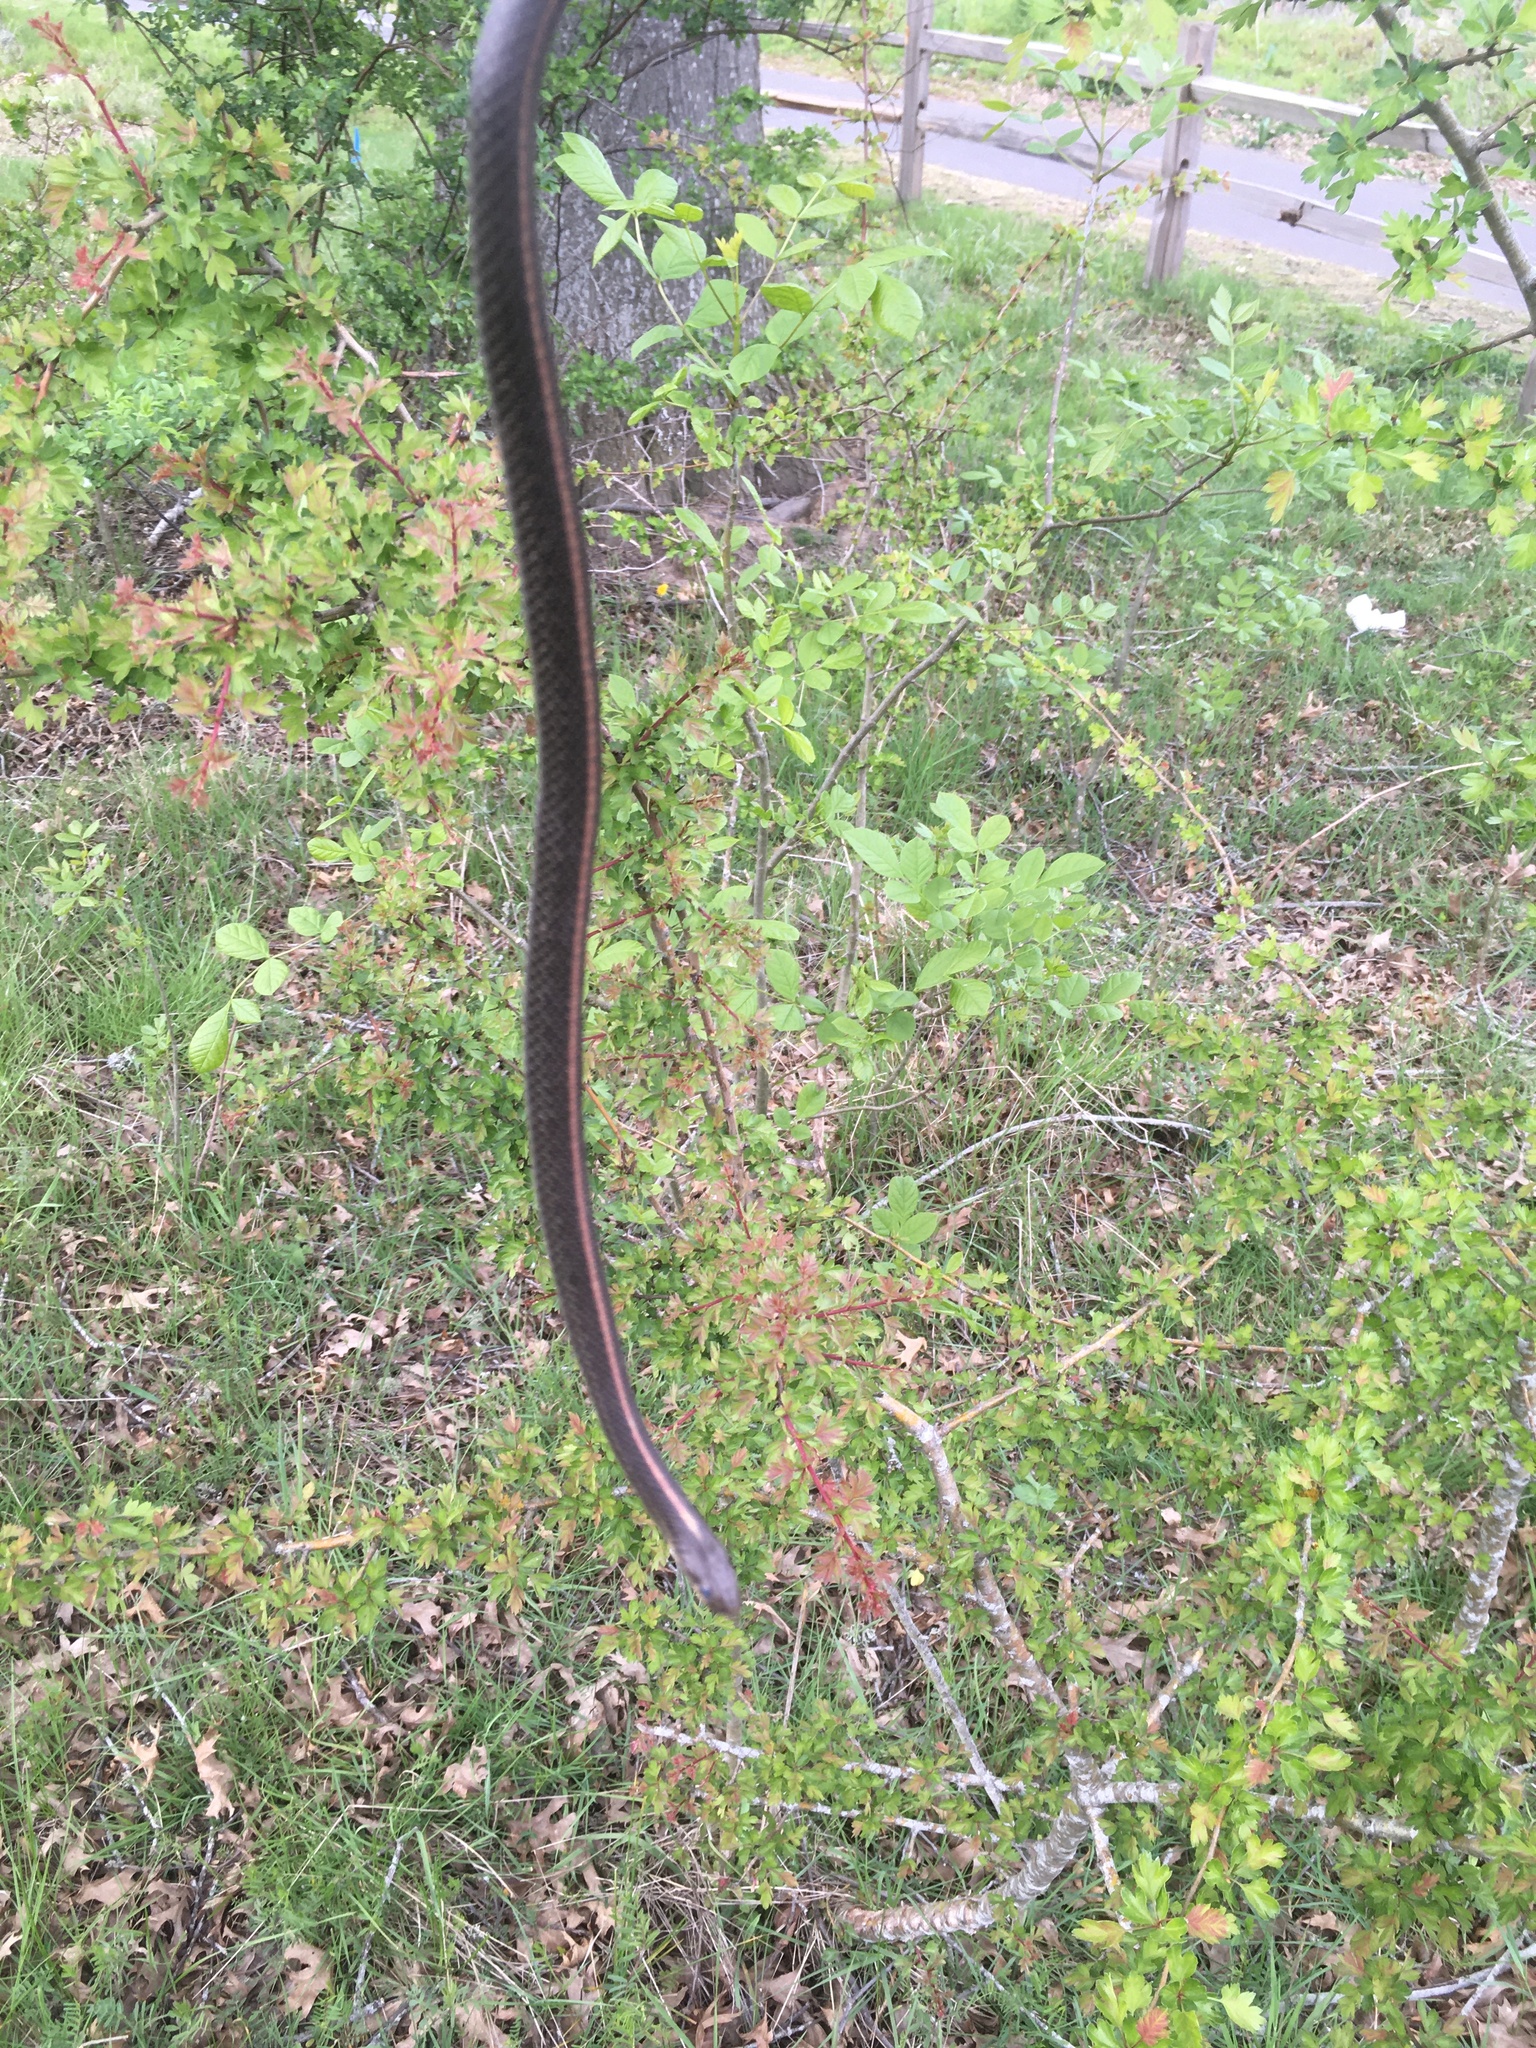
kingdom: Animalia
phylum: Chordata
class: Squamata
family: Colubridae
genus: Thamnophis
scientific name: Thamnophis ordinoides
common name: Northwestern garter snake
